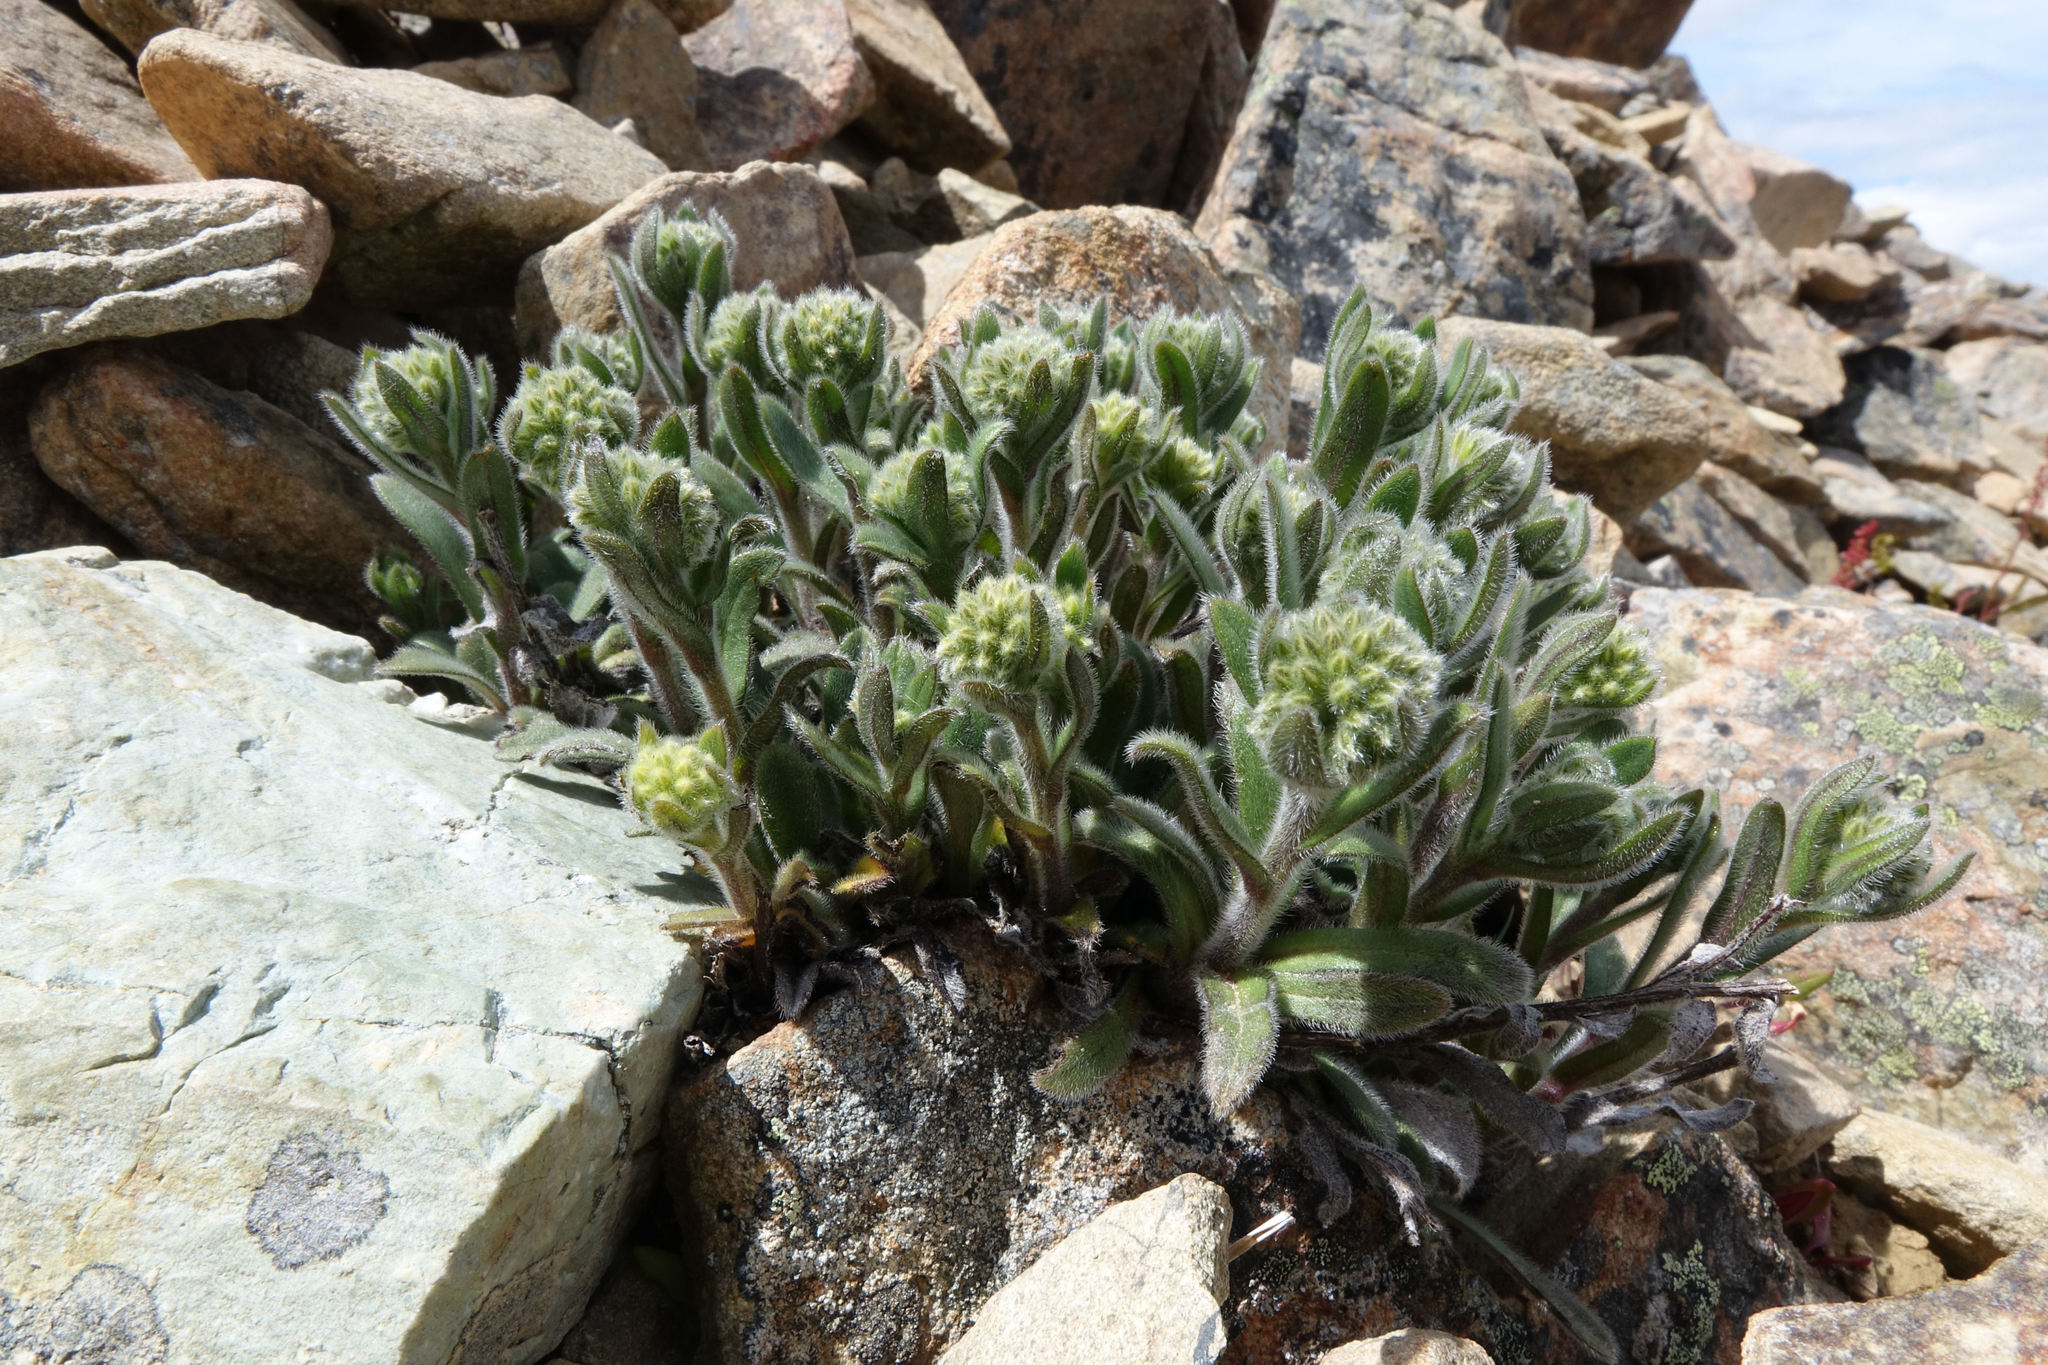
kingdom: Plantae
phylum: Tracheophyta
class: Magnoliopsida
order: Boraginales
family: Boraginaceae
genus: Myosotis
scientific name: Myosotis traversii
